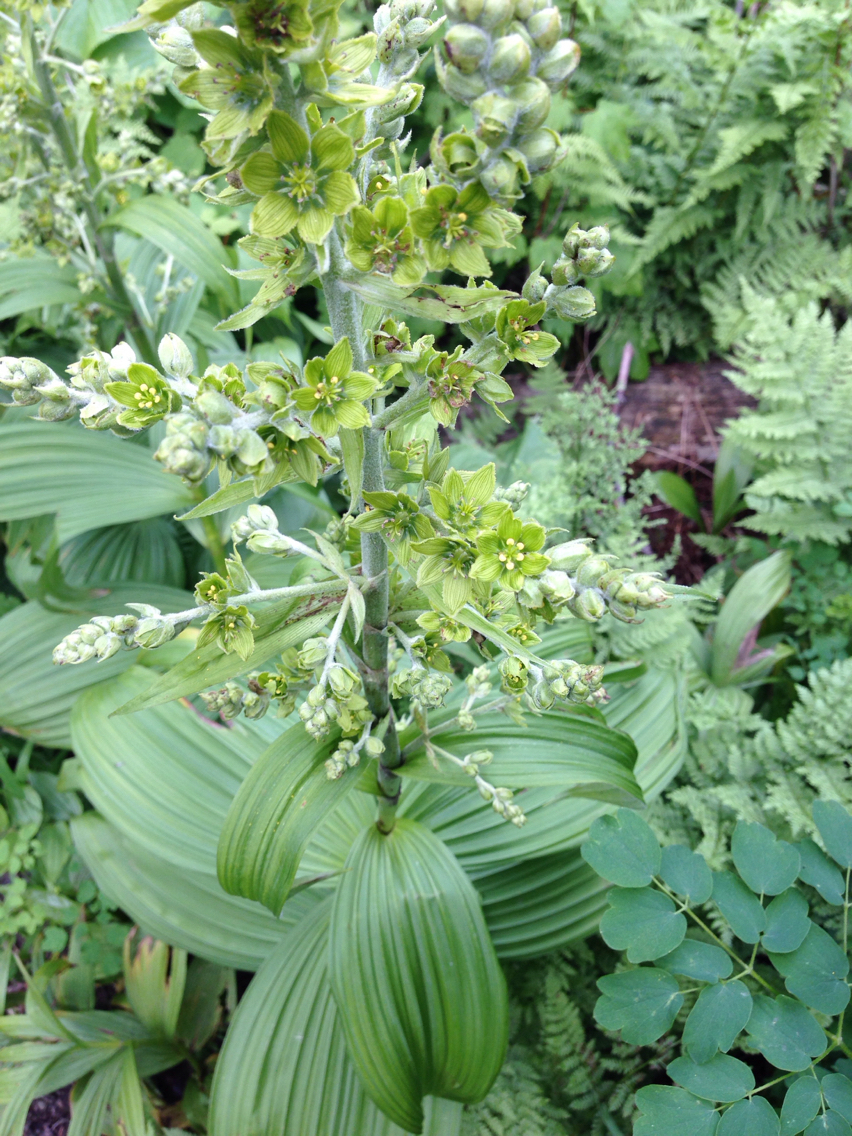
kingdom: Plantae
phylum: Tracheophyta
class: Liliopsida
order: Liliales
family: Melanthiaceae
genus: Veratrum
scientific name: Veratrum viride
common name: American false hellebore
